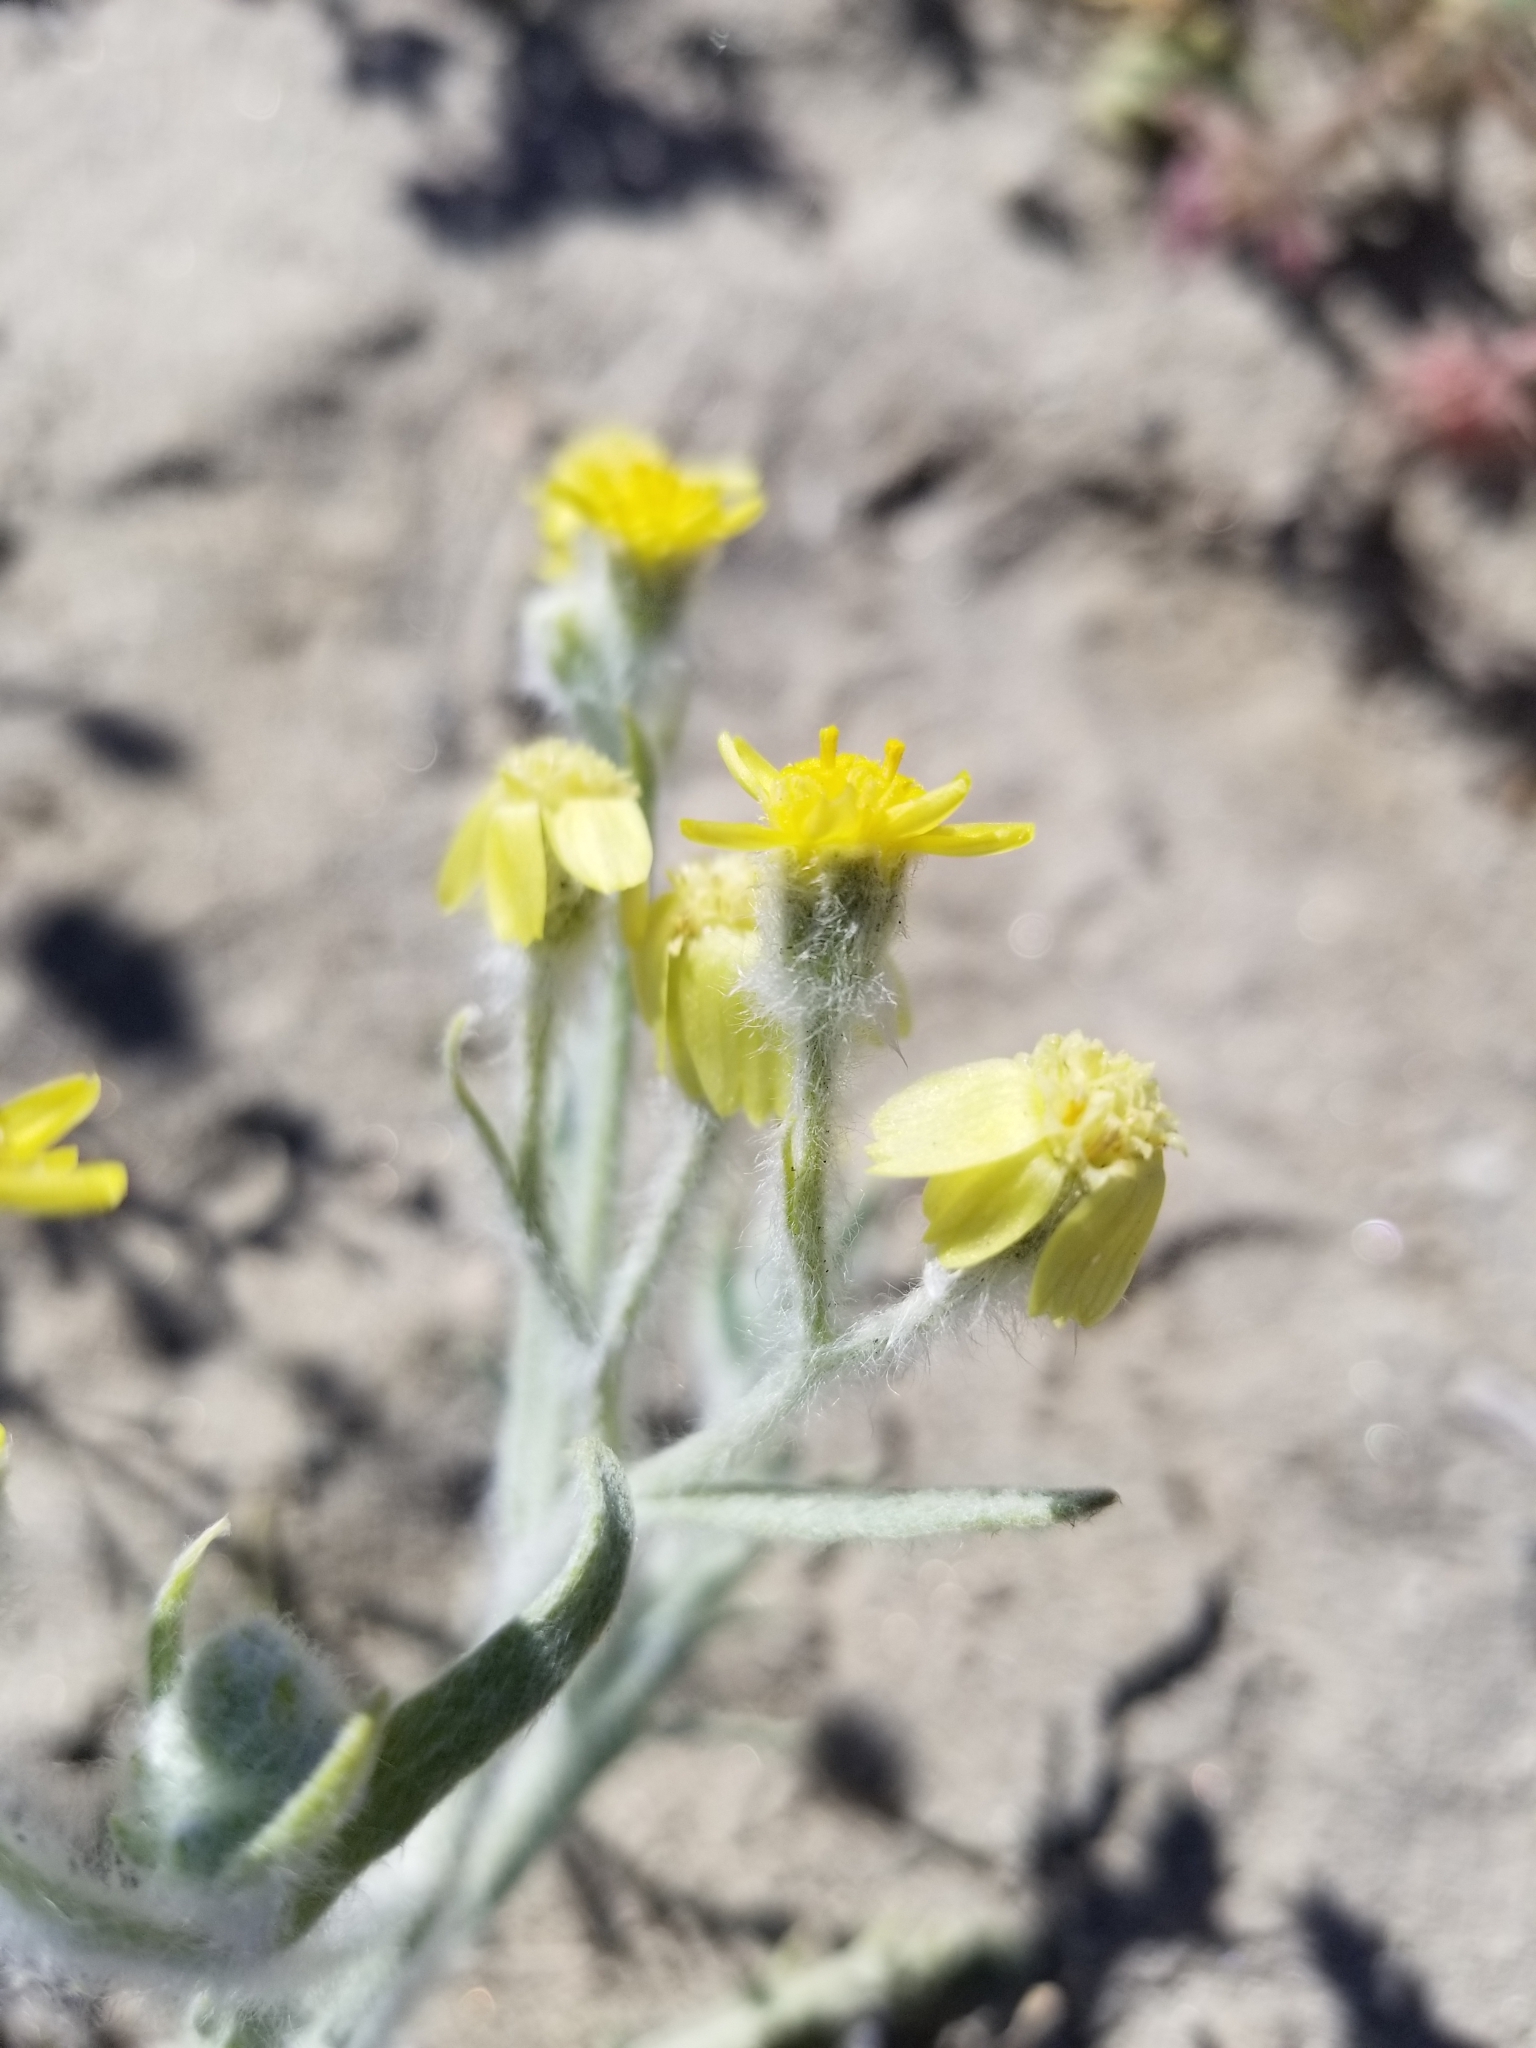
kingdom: Plantae
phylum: Tracheophyta
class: Magnoliopsida
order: Asterales
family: Asteraceae
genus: Baileya
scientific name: Baileya pauciradiata
